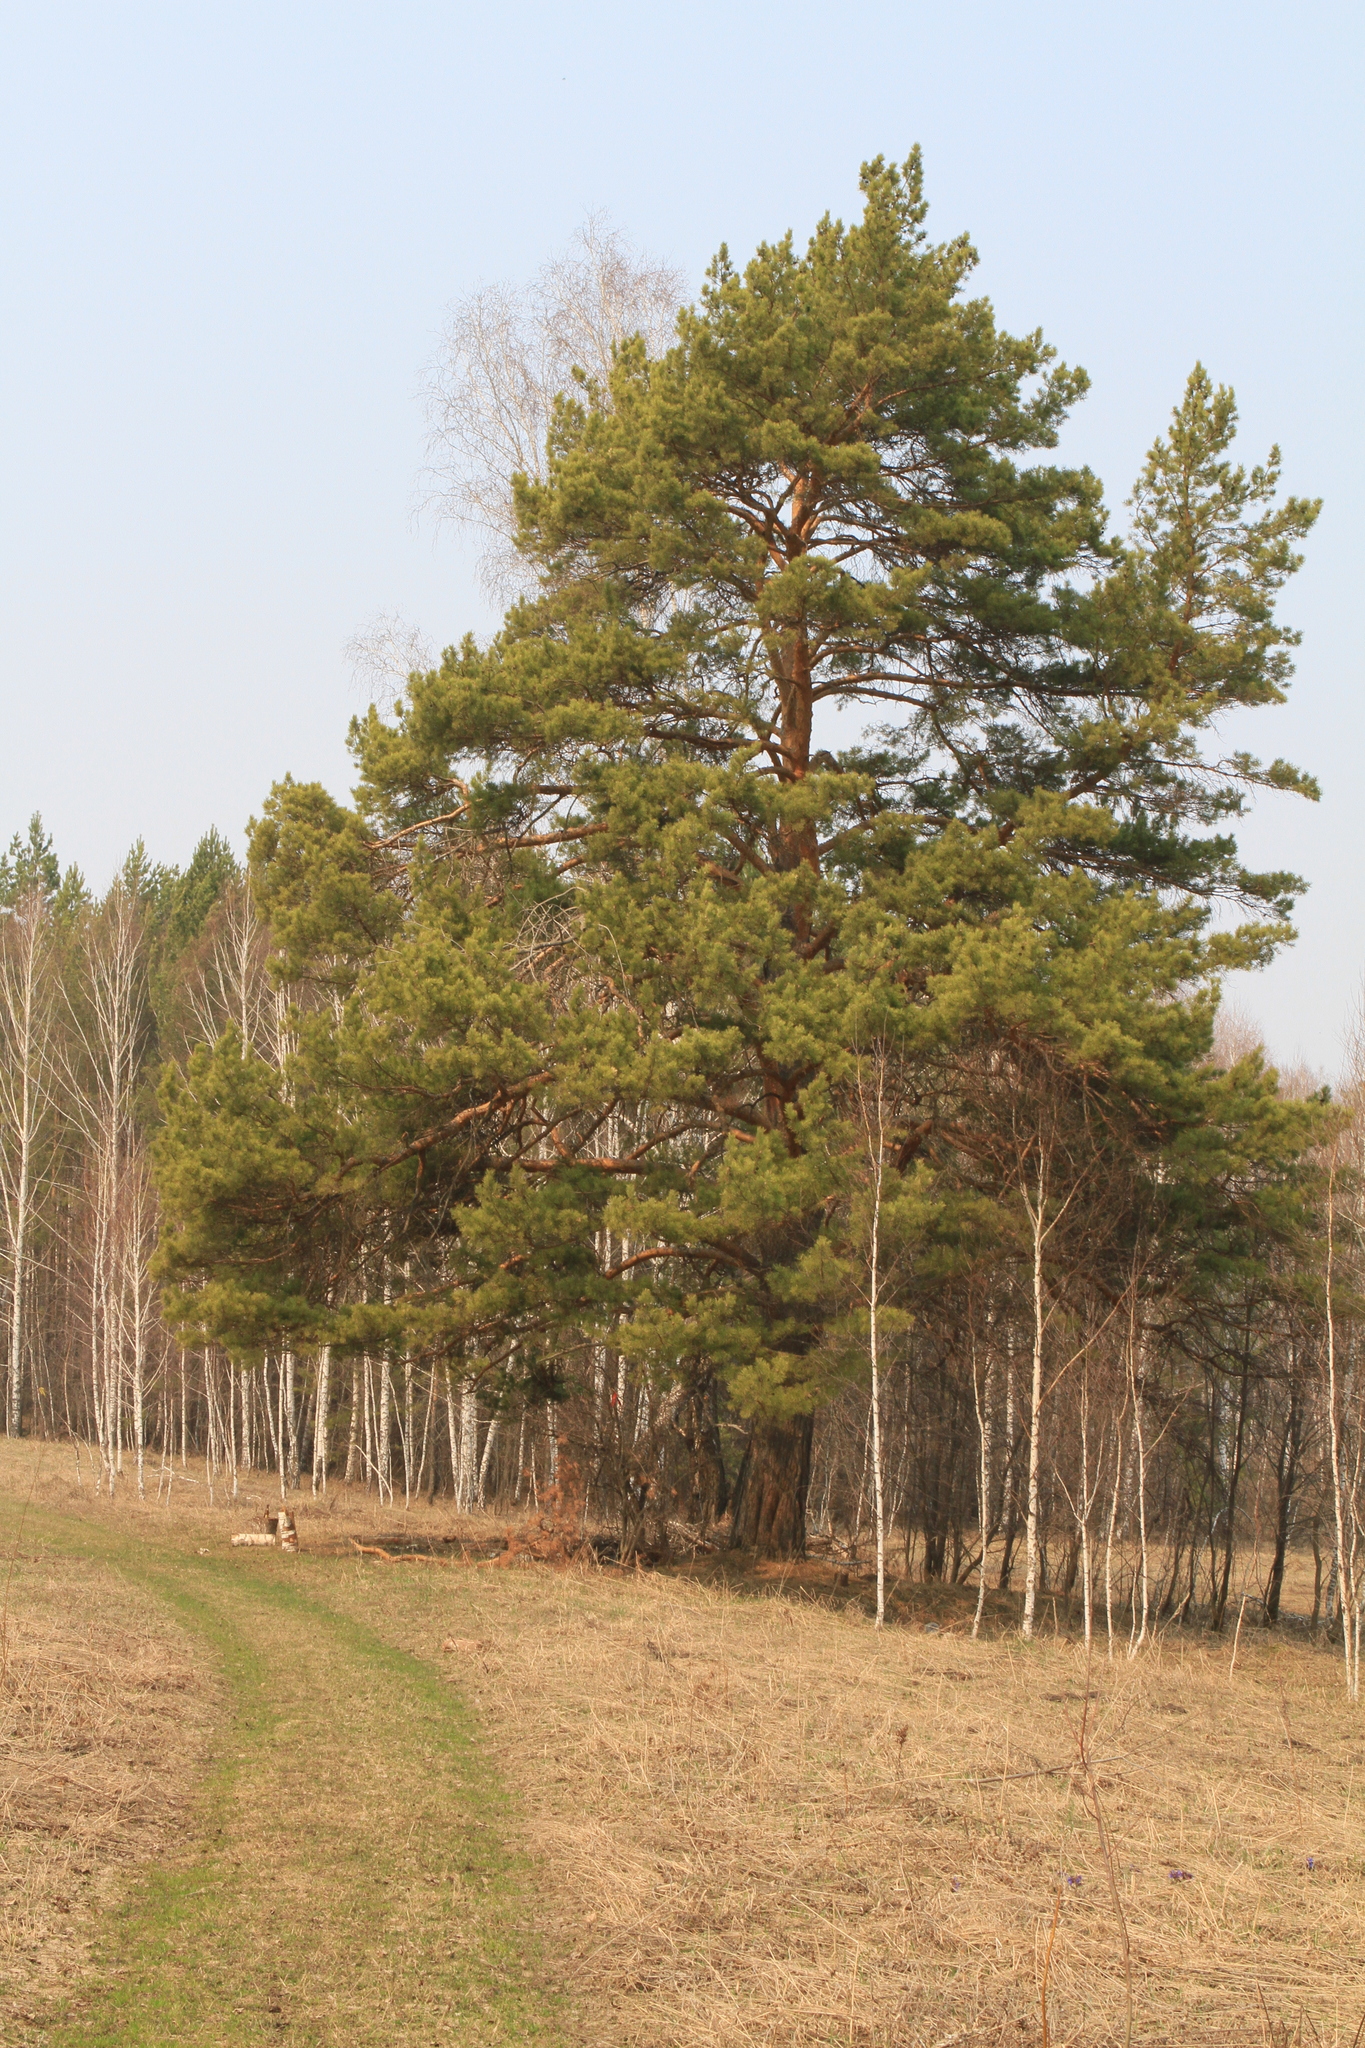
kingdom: Plantae
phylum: Tracheophyta
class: Pinopsida
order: Pinales
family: Pinaceae
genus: Pinus
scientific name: Pinus sylvestris
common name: Scots pine
